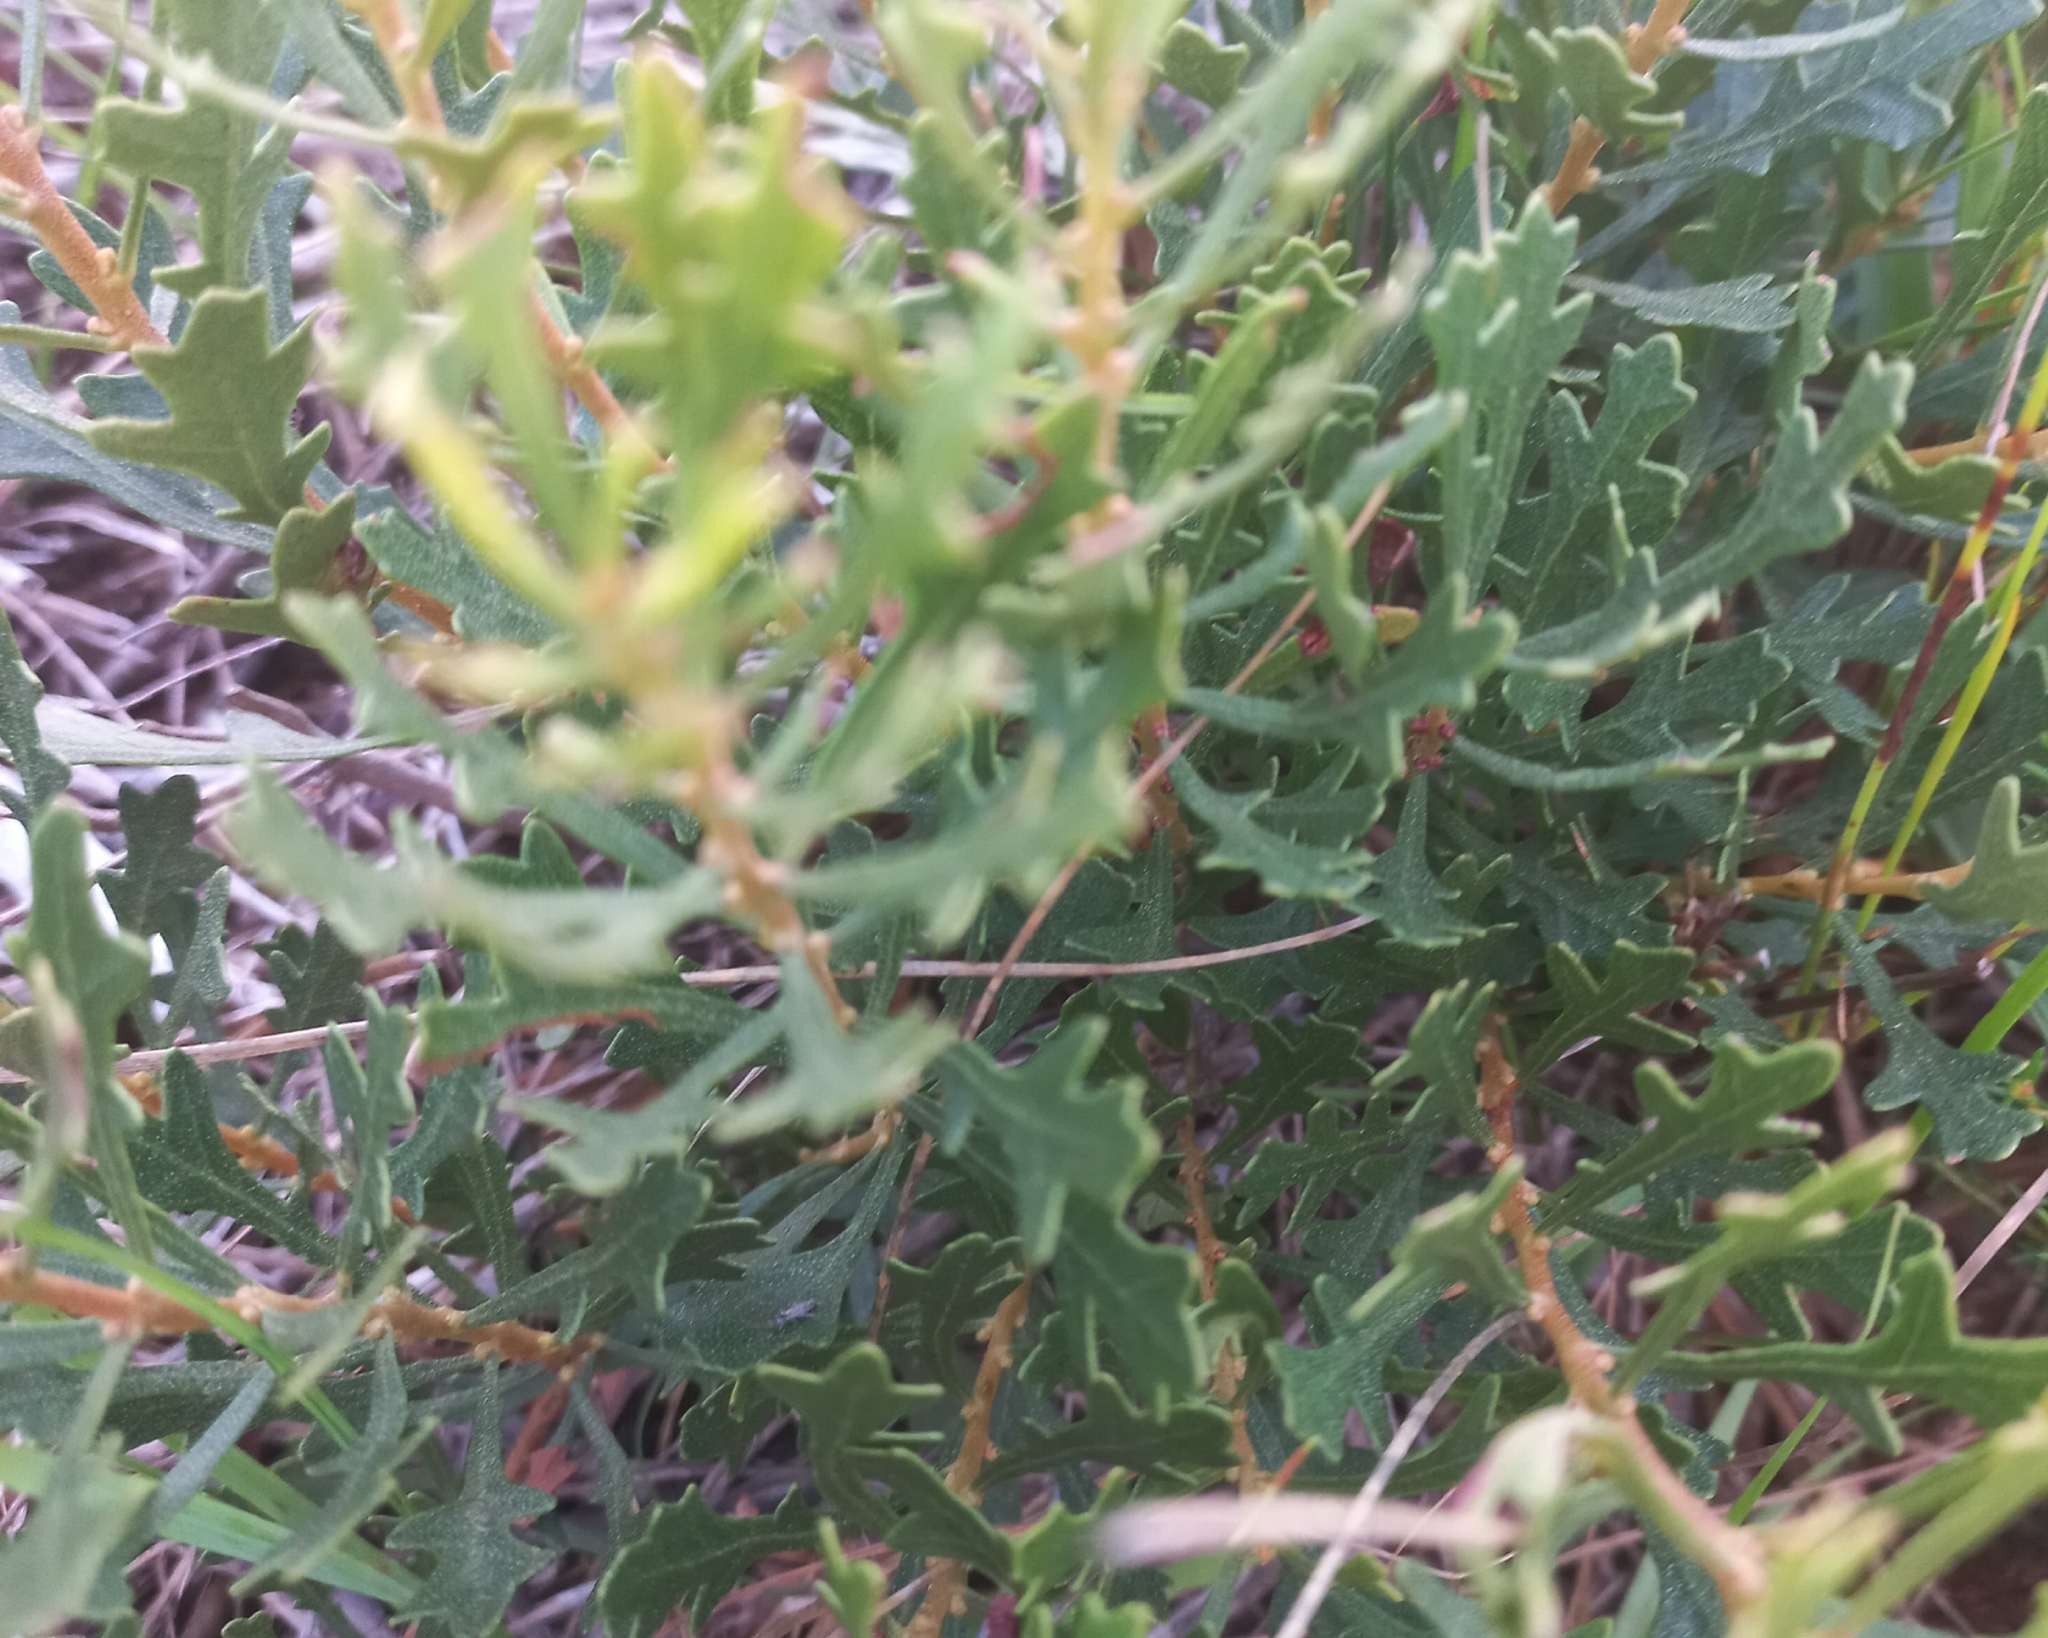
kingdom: Plantae
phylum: Tracheophyta
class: Magnoliopsida
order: Fagales
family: Myricaceae
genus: Morella
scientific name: Morella quercifolia
